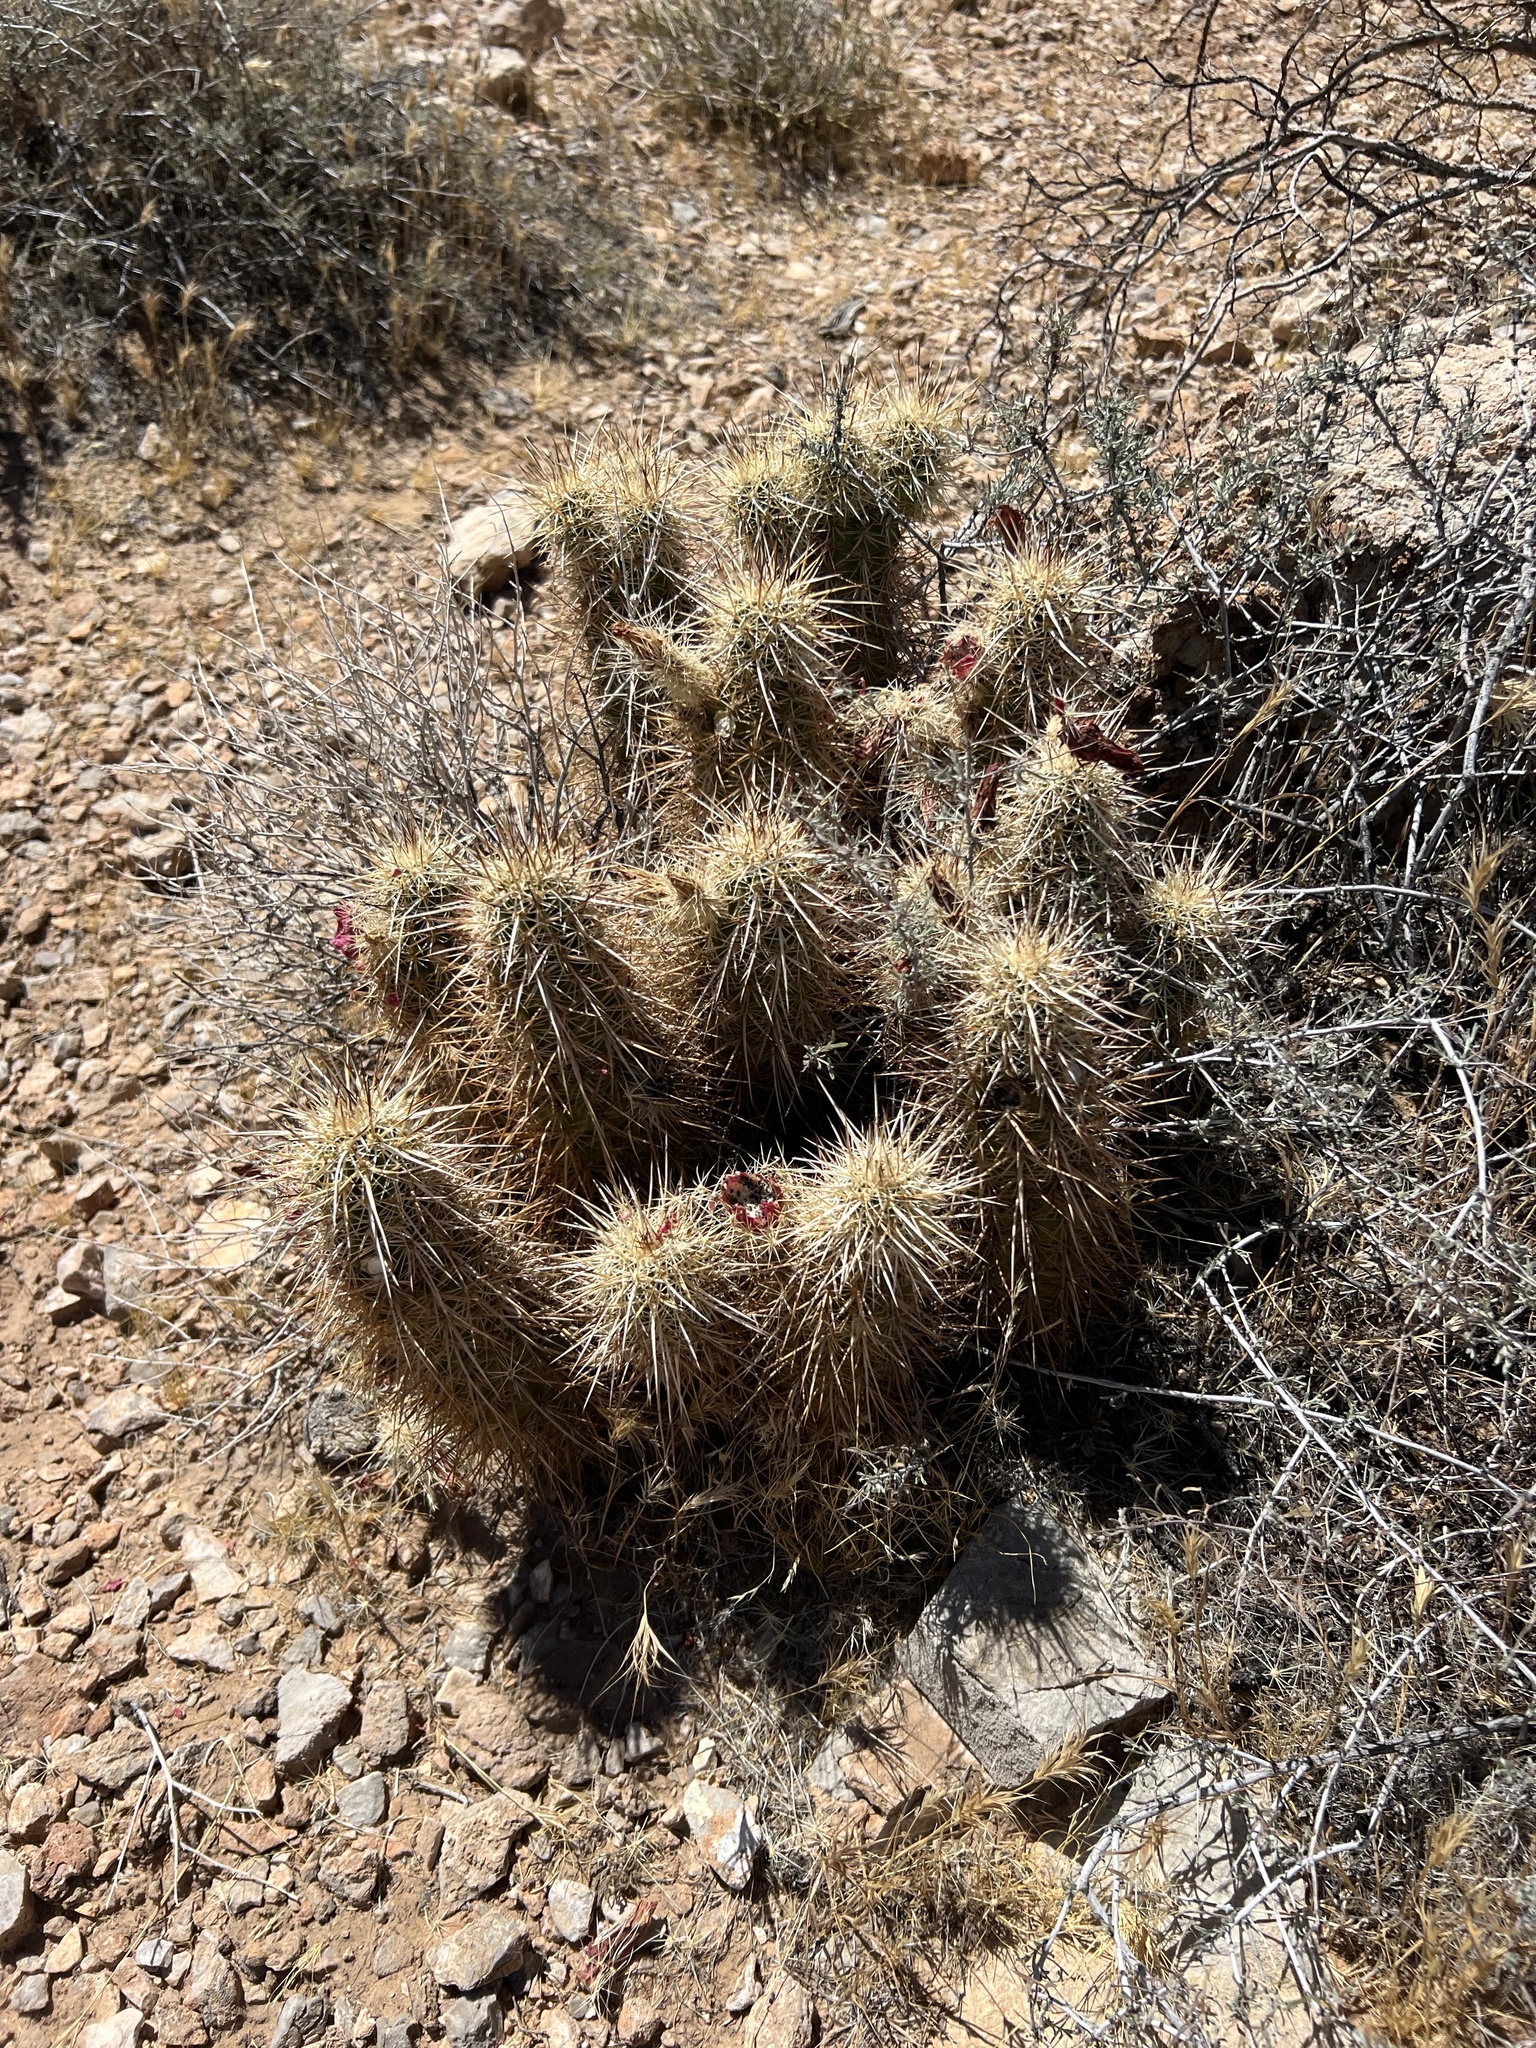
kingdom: Plantae
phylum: Tracheophyta
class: Magnoliopsida
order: Caryophyllales
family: Cactaceae
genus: Echinocereus
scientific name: Echinocereus engelmannii
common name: Engelmann's hedgehog cactus
